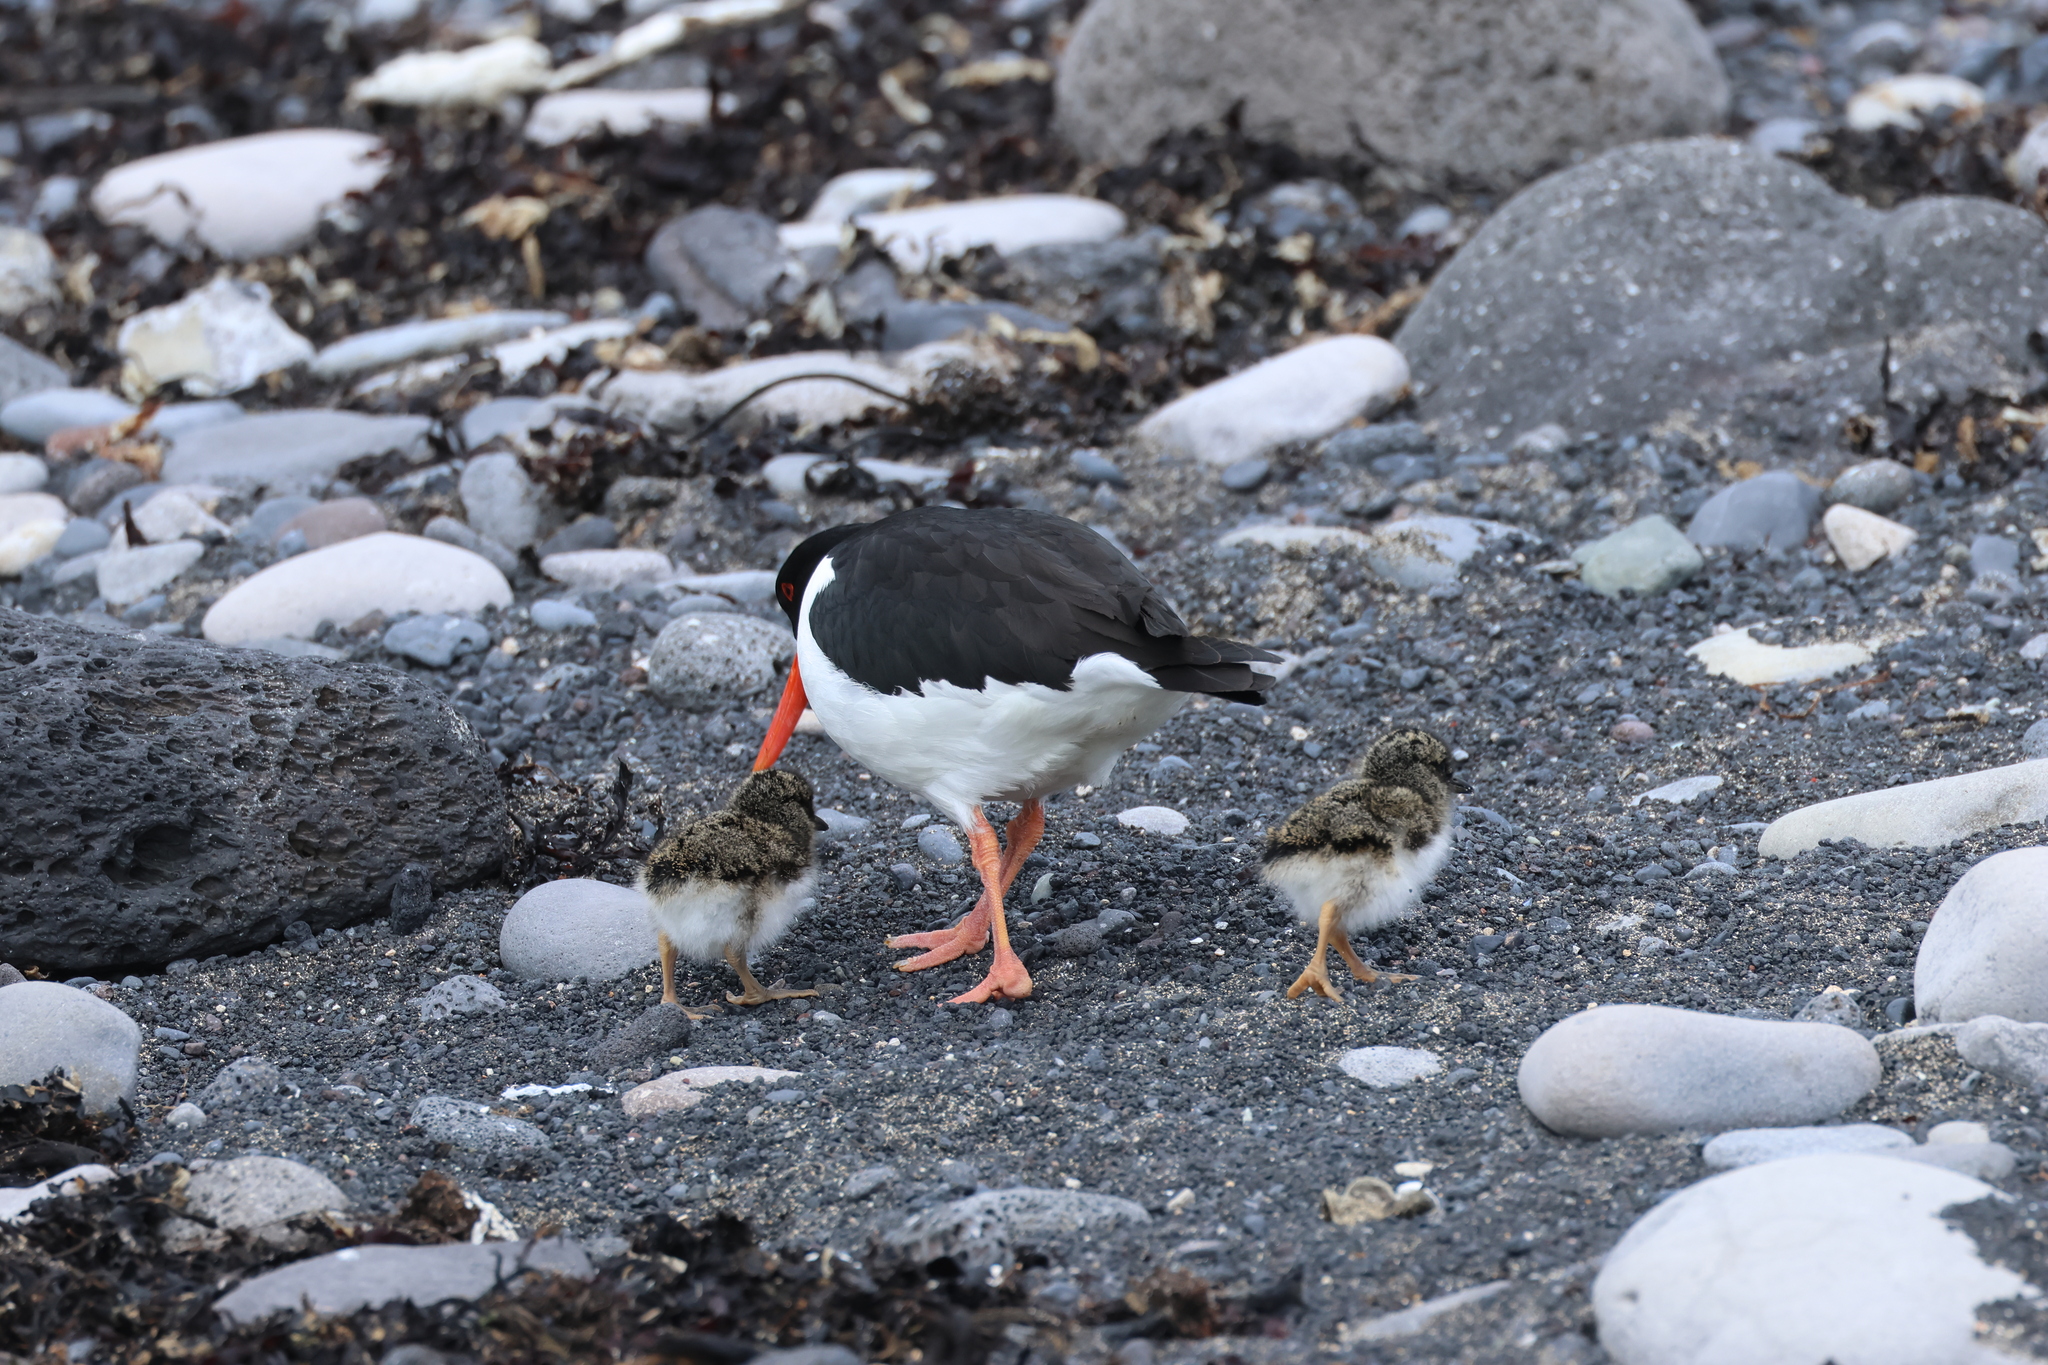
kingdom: Animalia
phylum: Chordata
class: Aves
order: Charadriiformes
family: Haematopodidae
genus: Haematopus
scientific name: Haematopus ostralegus
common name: Eurasian oystercatcher
